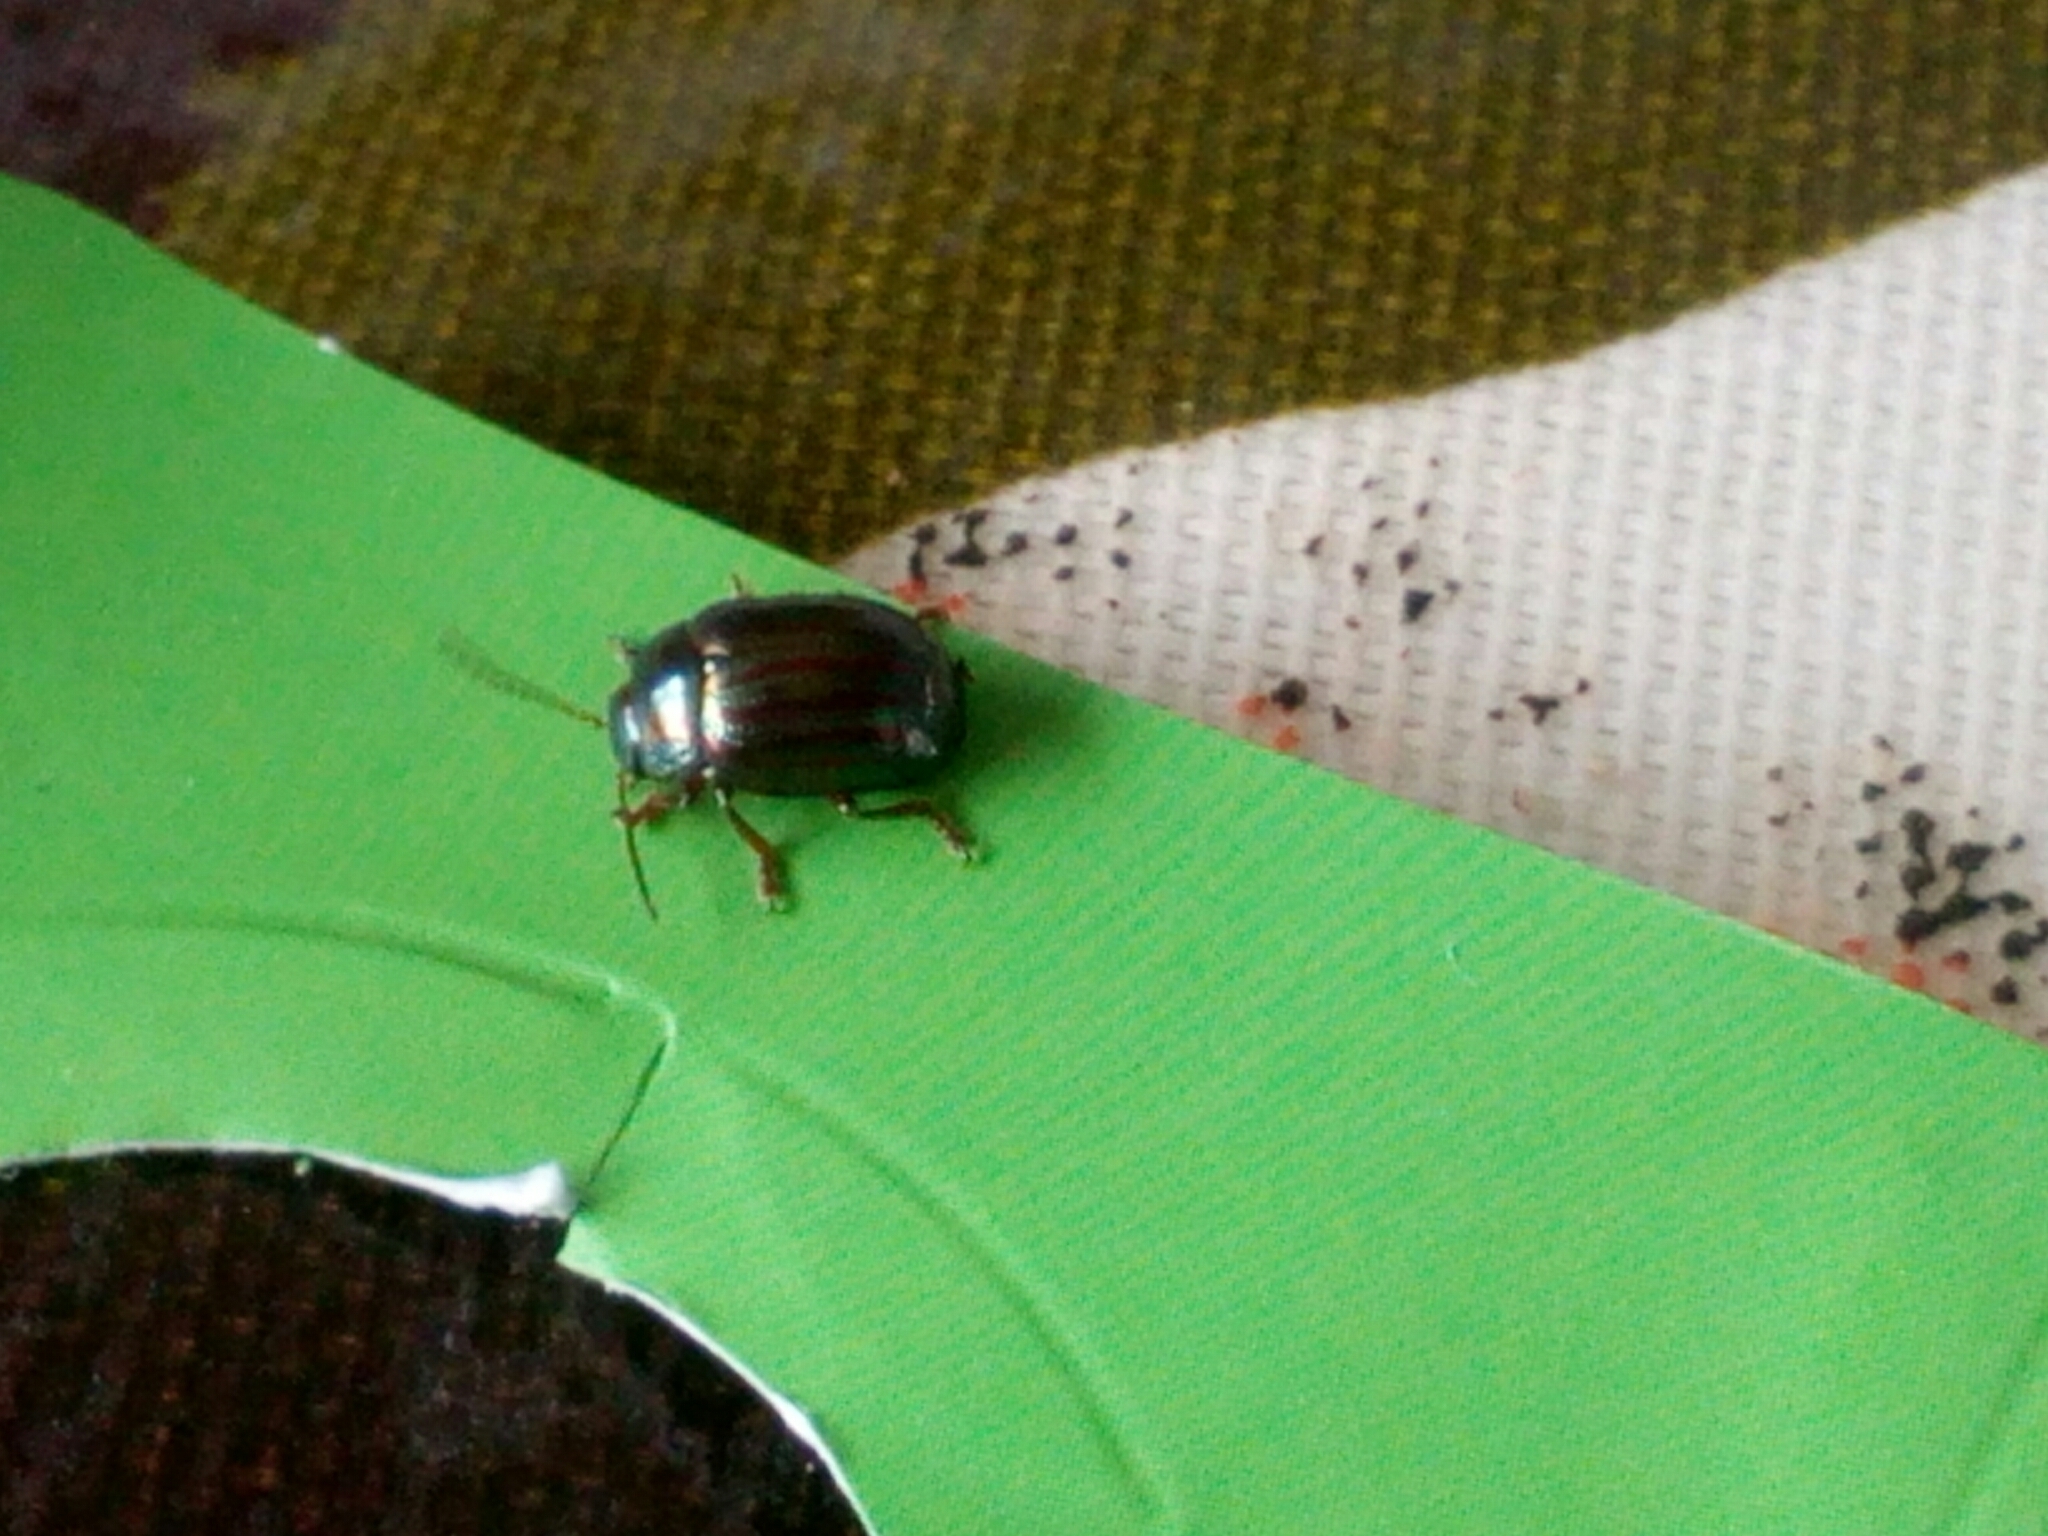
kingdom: Animalia
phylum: Arthropoda
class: Insecta
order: Coleoptera
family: Chrysomelidae
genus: Chrysolina
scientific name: Chrysolina americana
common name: Rosemary beetle
